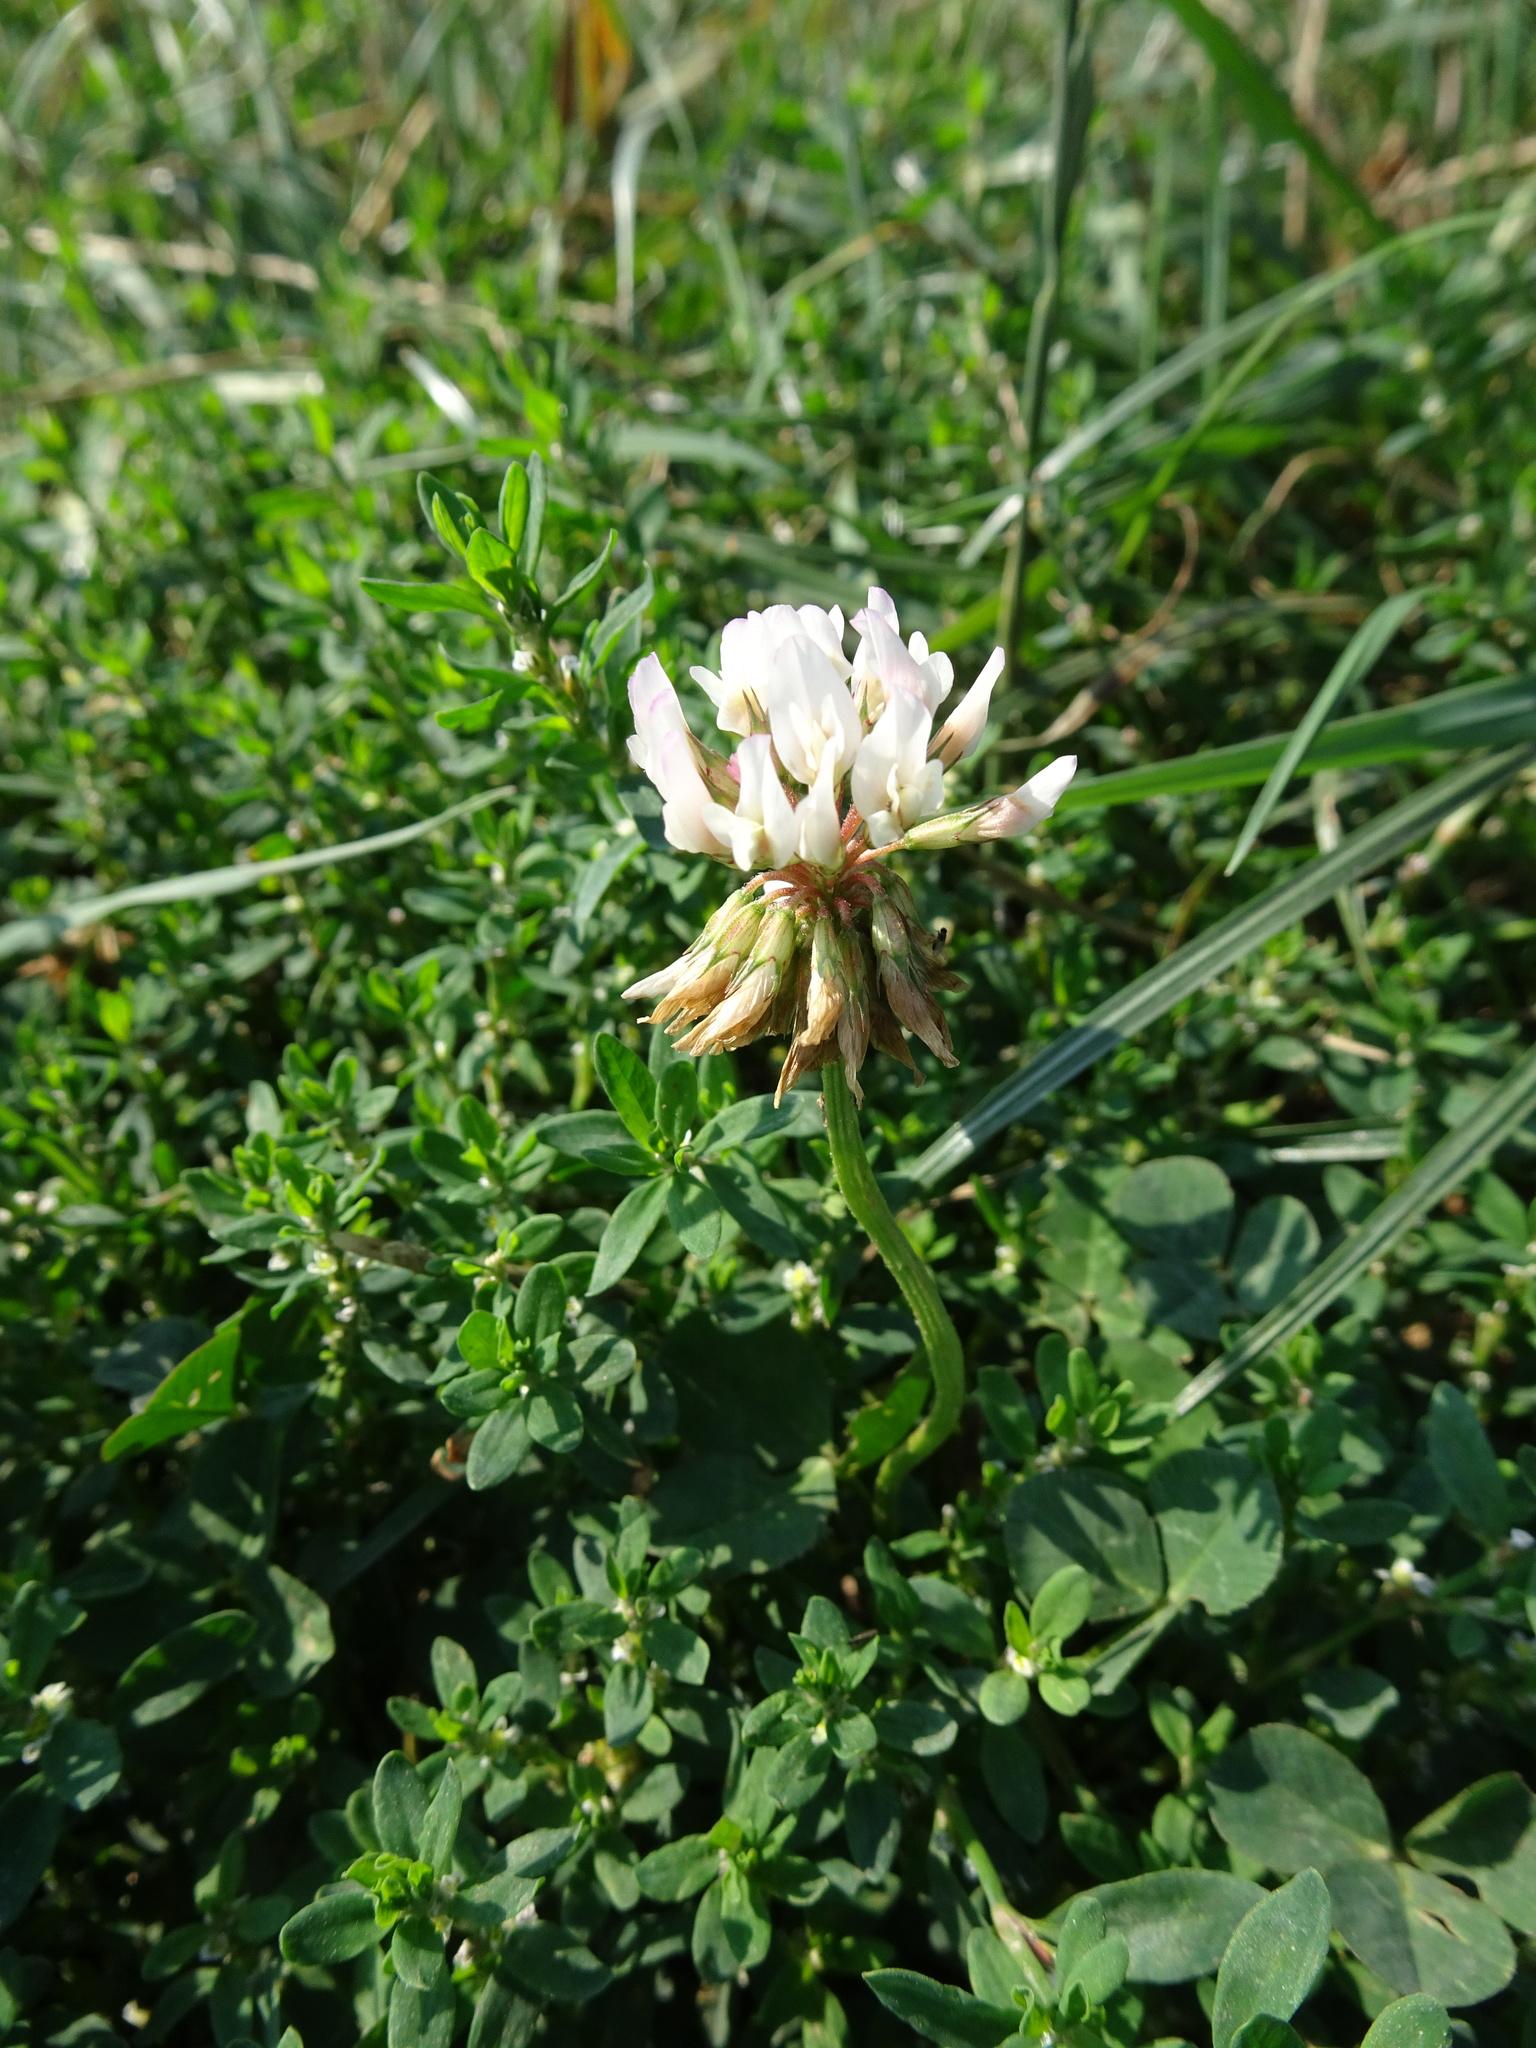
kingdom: Plantae
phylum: Tracheophyta
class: Magnoliopsida
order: Fabales
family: Fabaceae
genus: Trifolium
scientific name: Trifolium repens
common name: White clover
